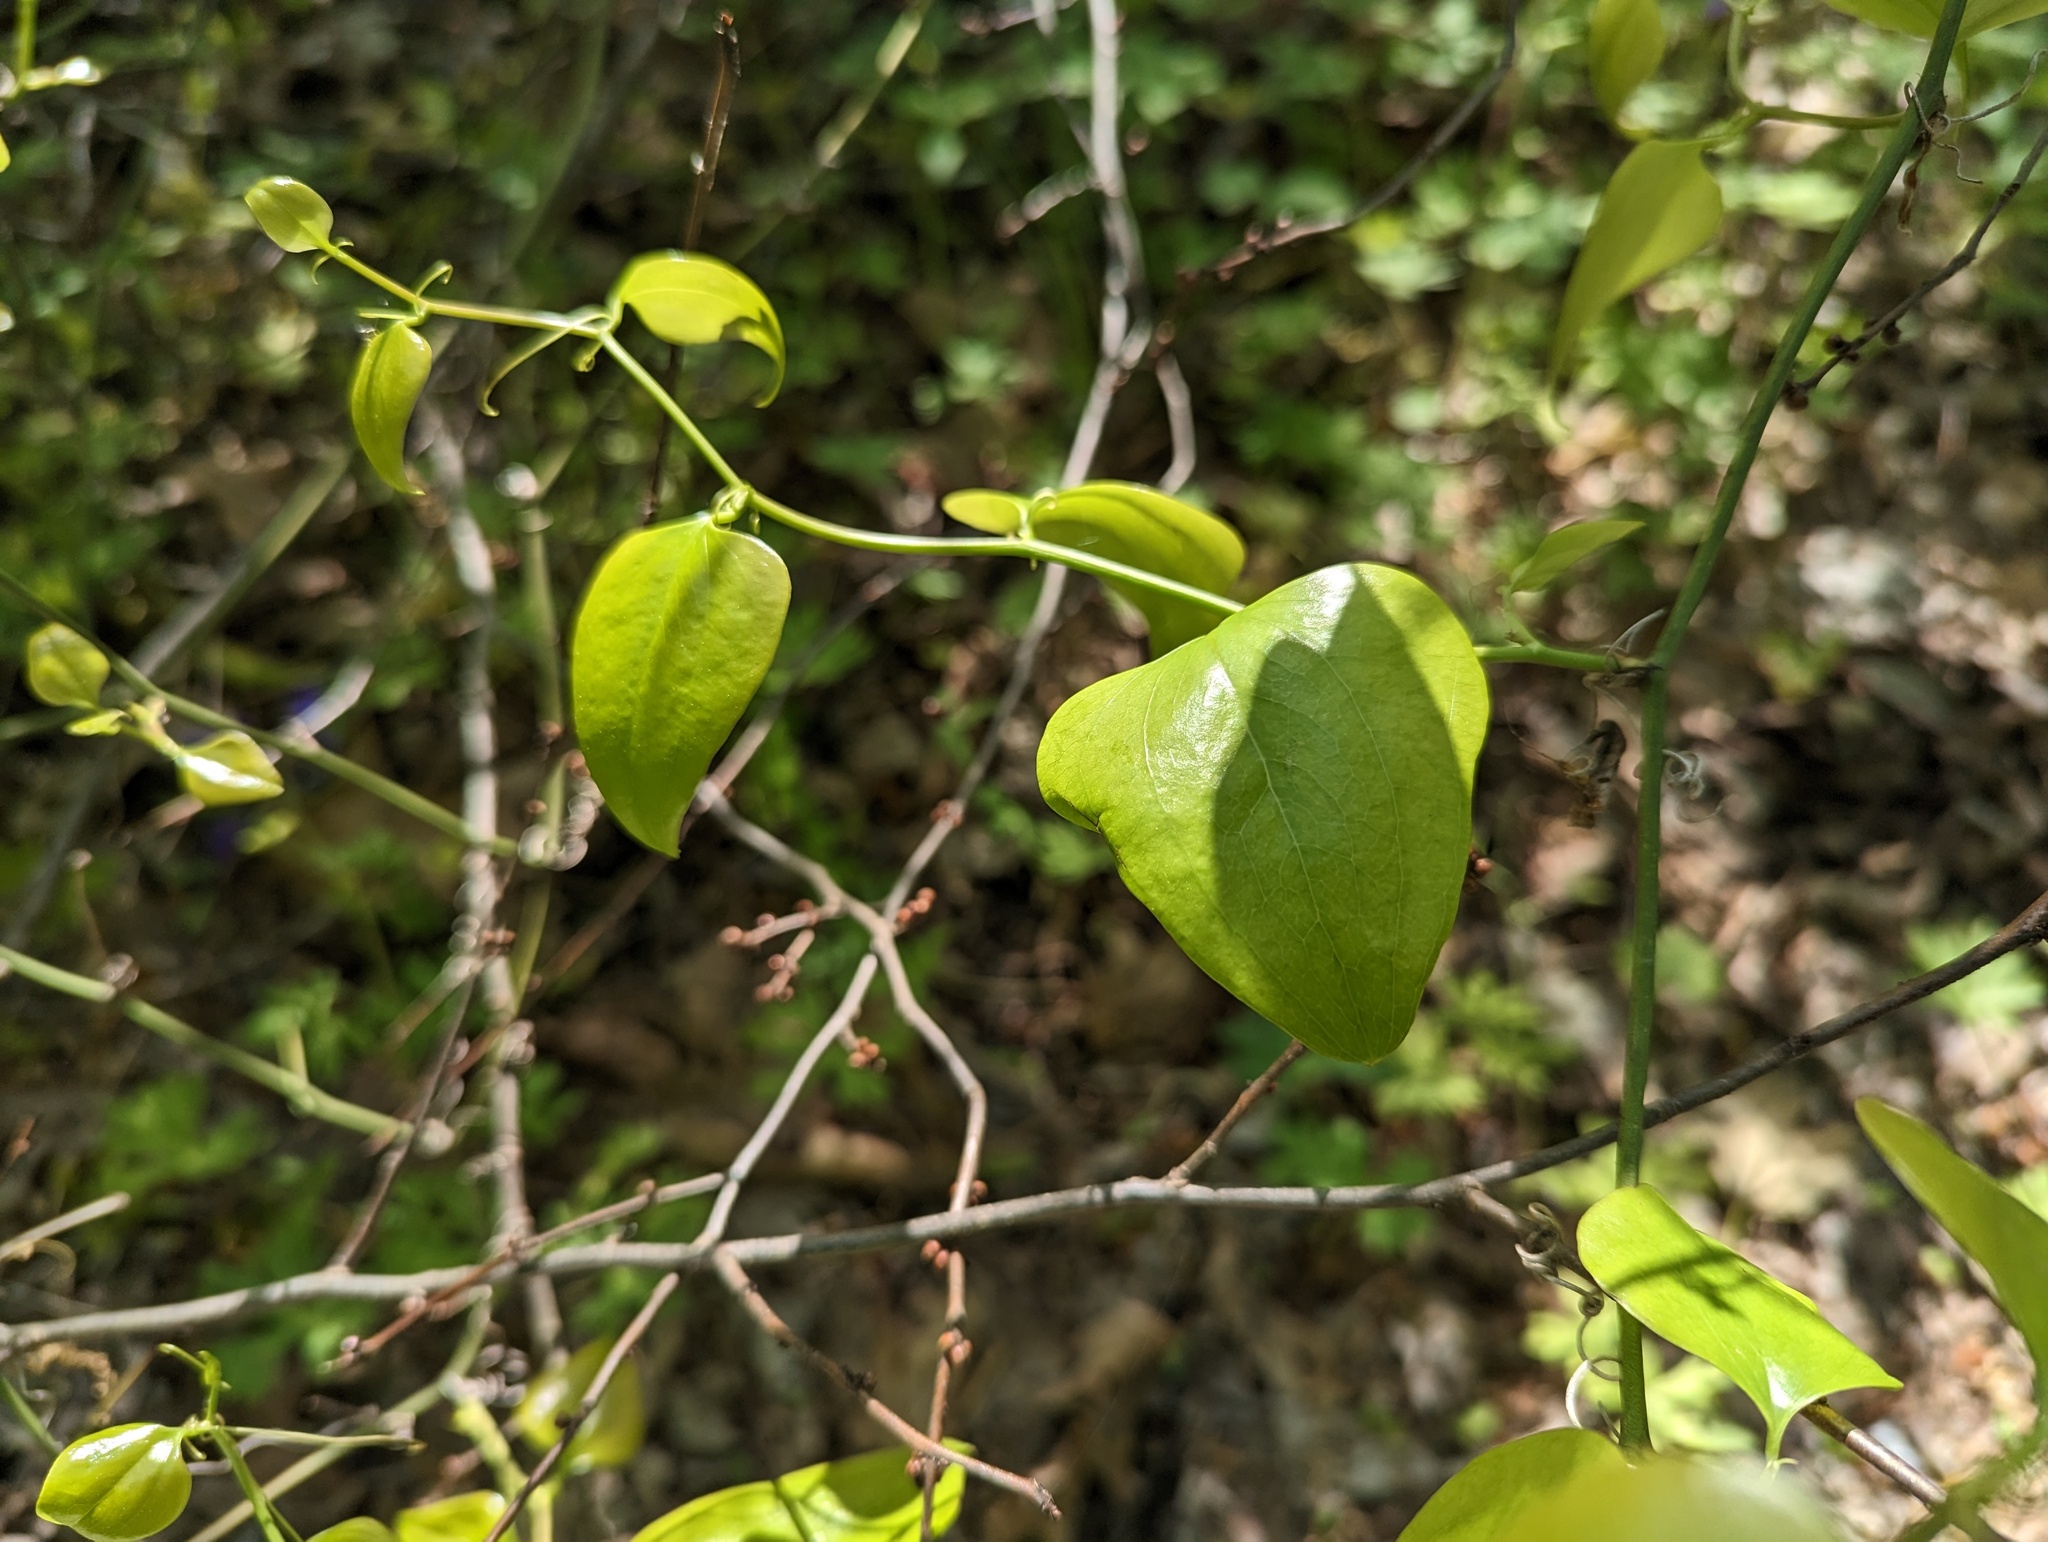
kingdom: Plantae
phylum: Tracheophyta
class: Liliopsida
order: Liliales
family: Smilacaceae
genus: Smilax
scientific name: Smilax rotundifolia
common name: Bullbriar
